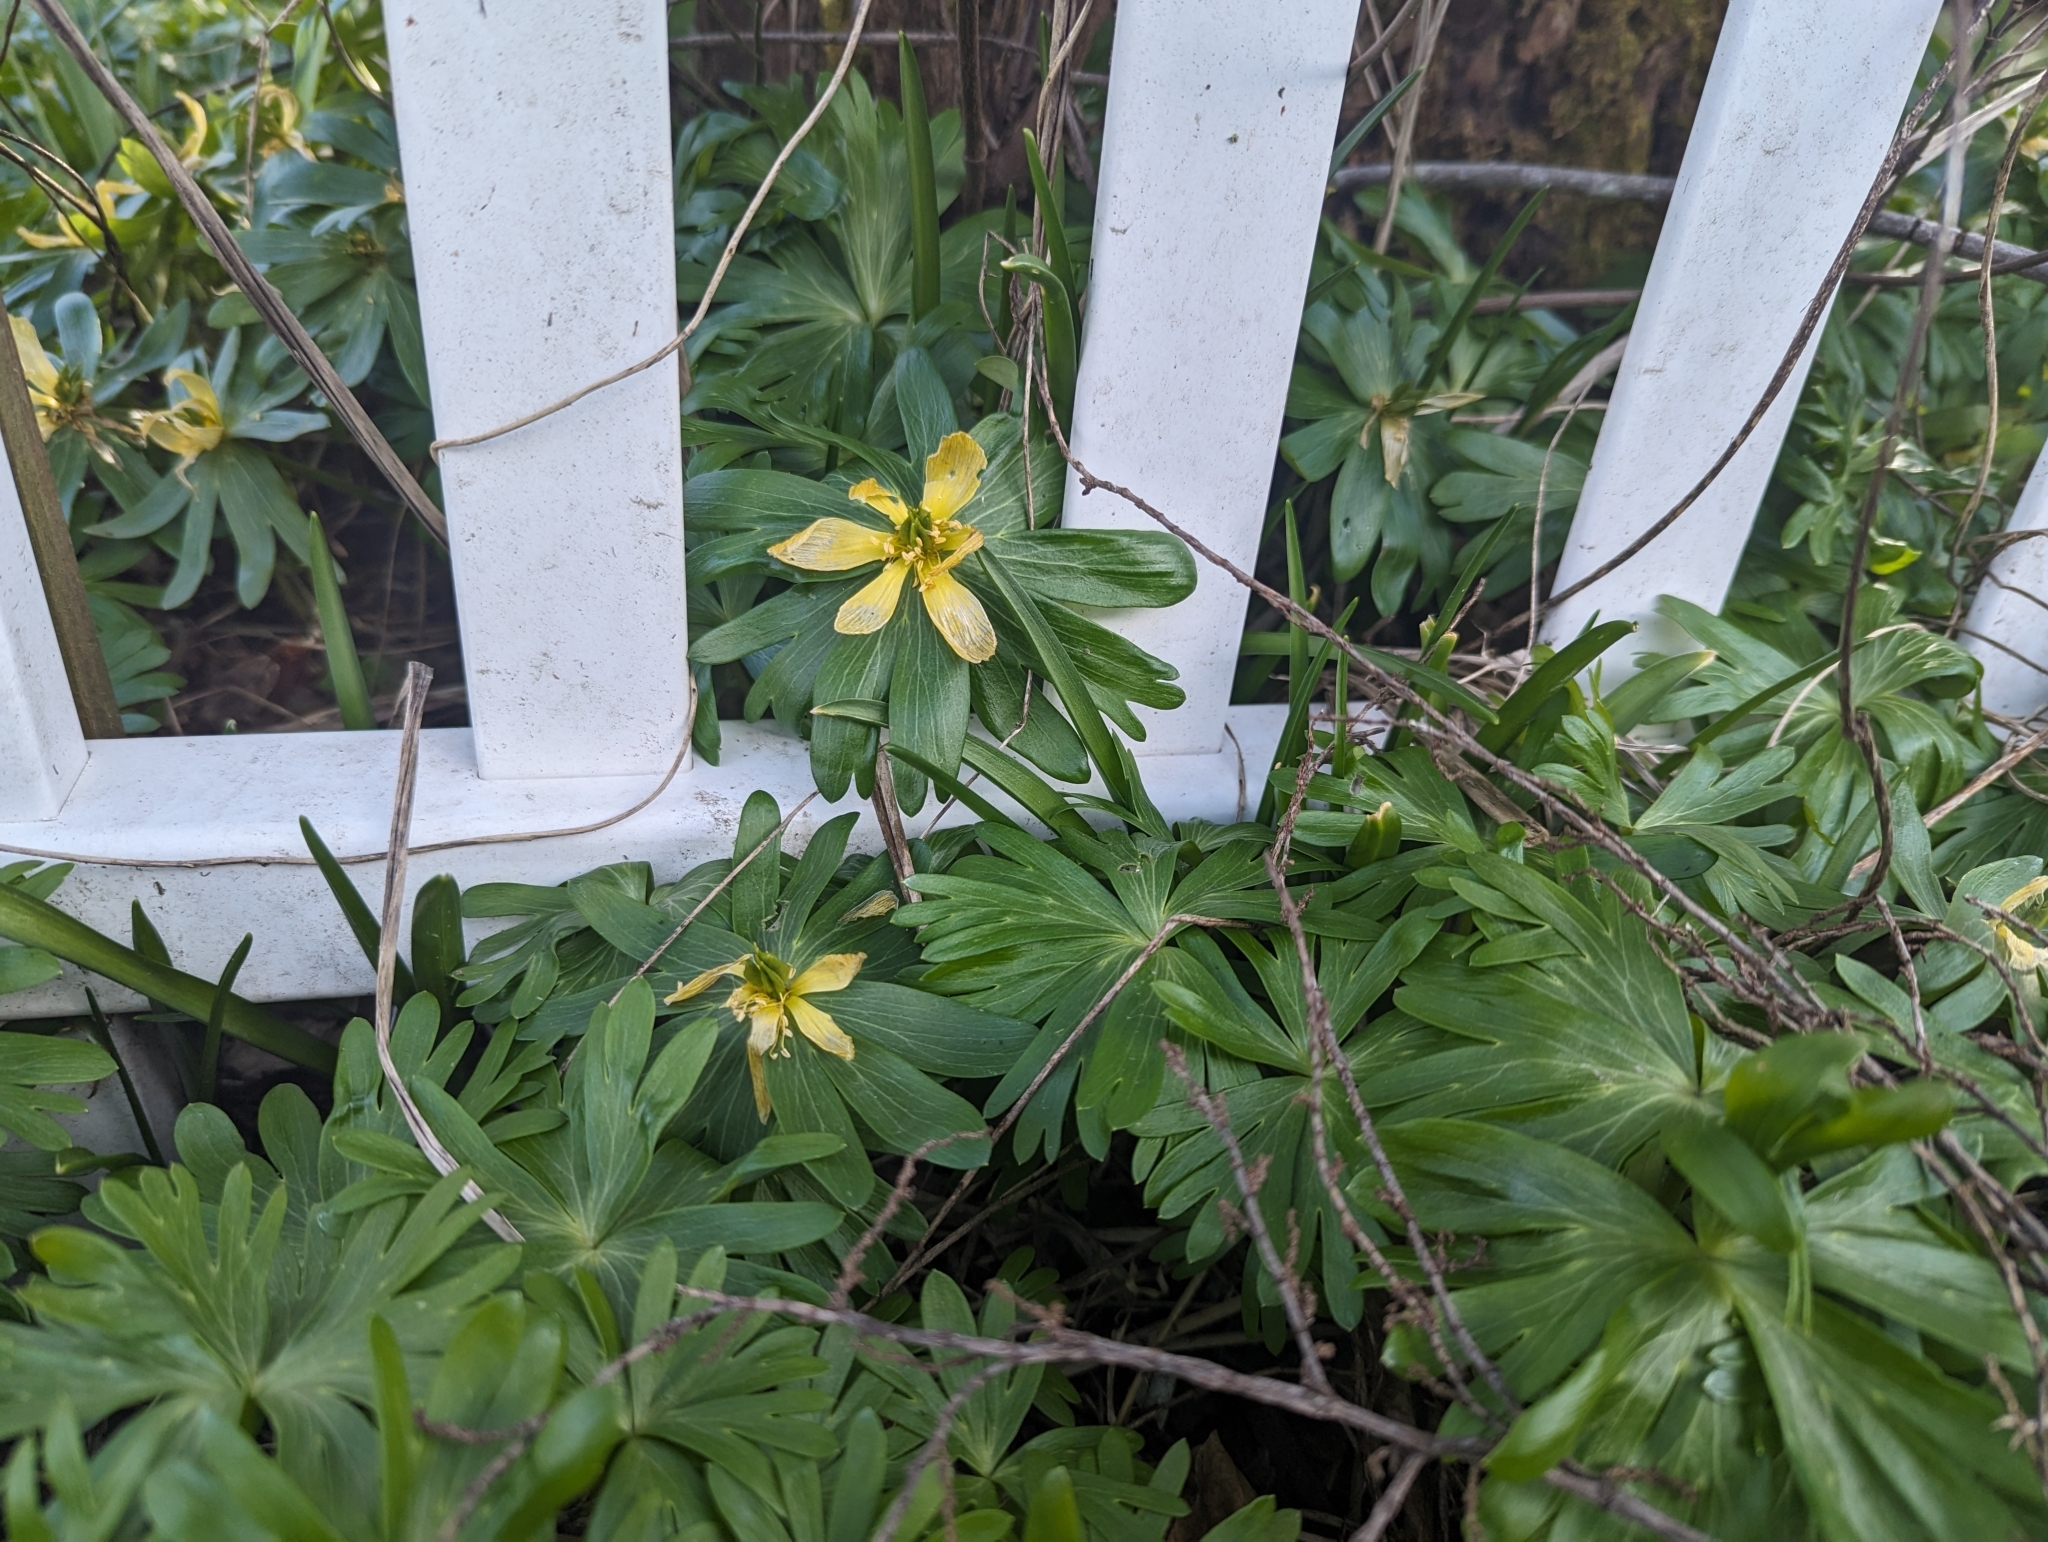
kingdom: Plantae
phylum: Tracheophyta
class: Magnoliopsida
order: Ranunculales
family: Ranunculaceae
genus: Eranthis
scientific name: Eranthis hyemalis
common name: Winter aconite
